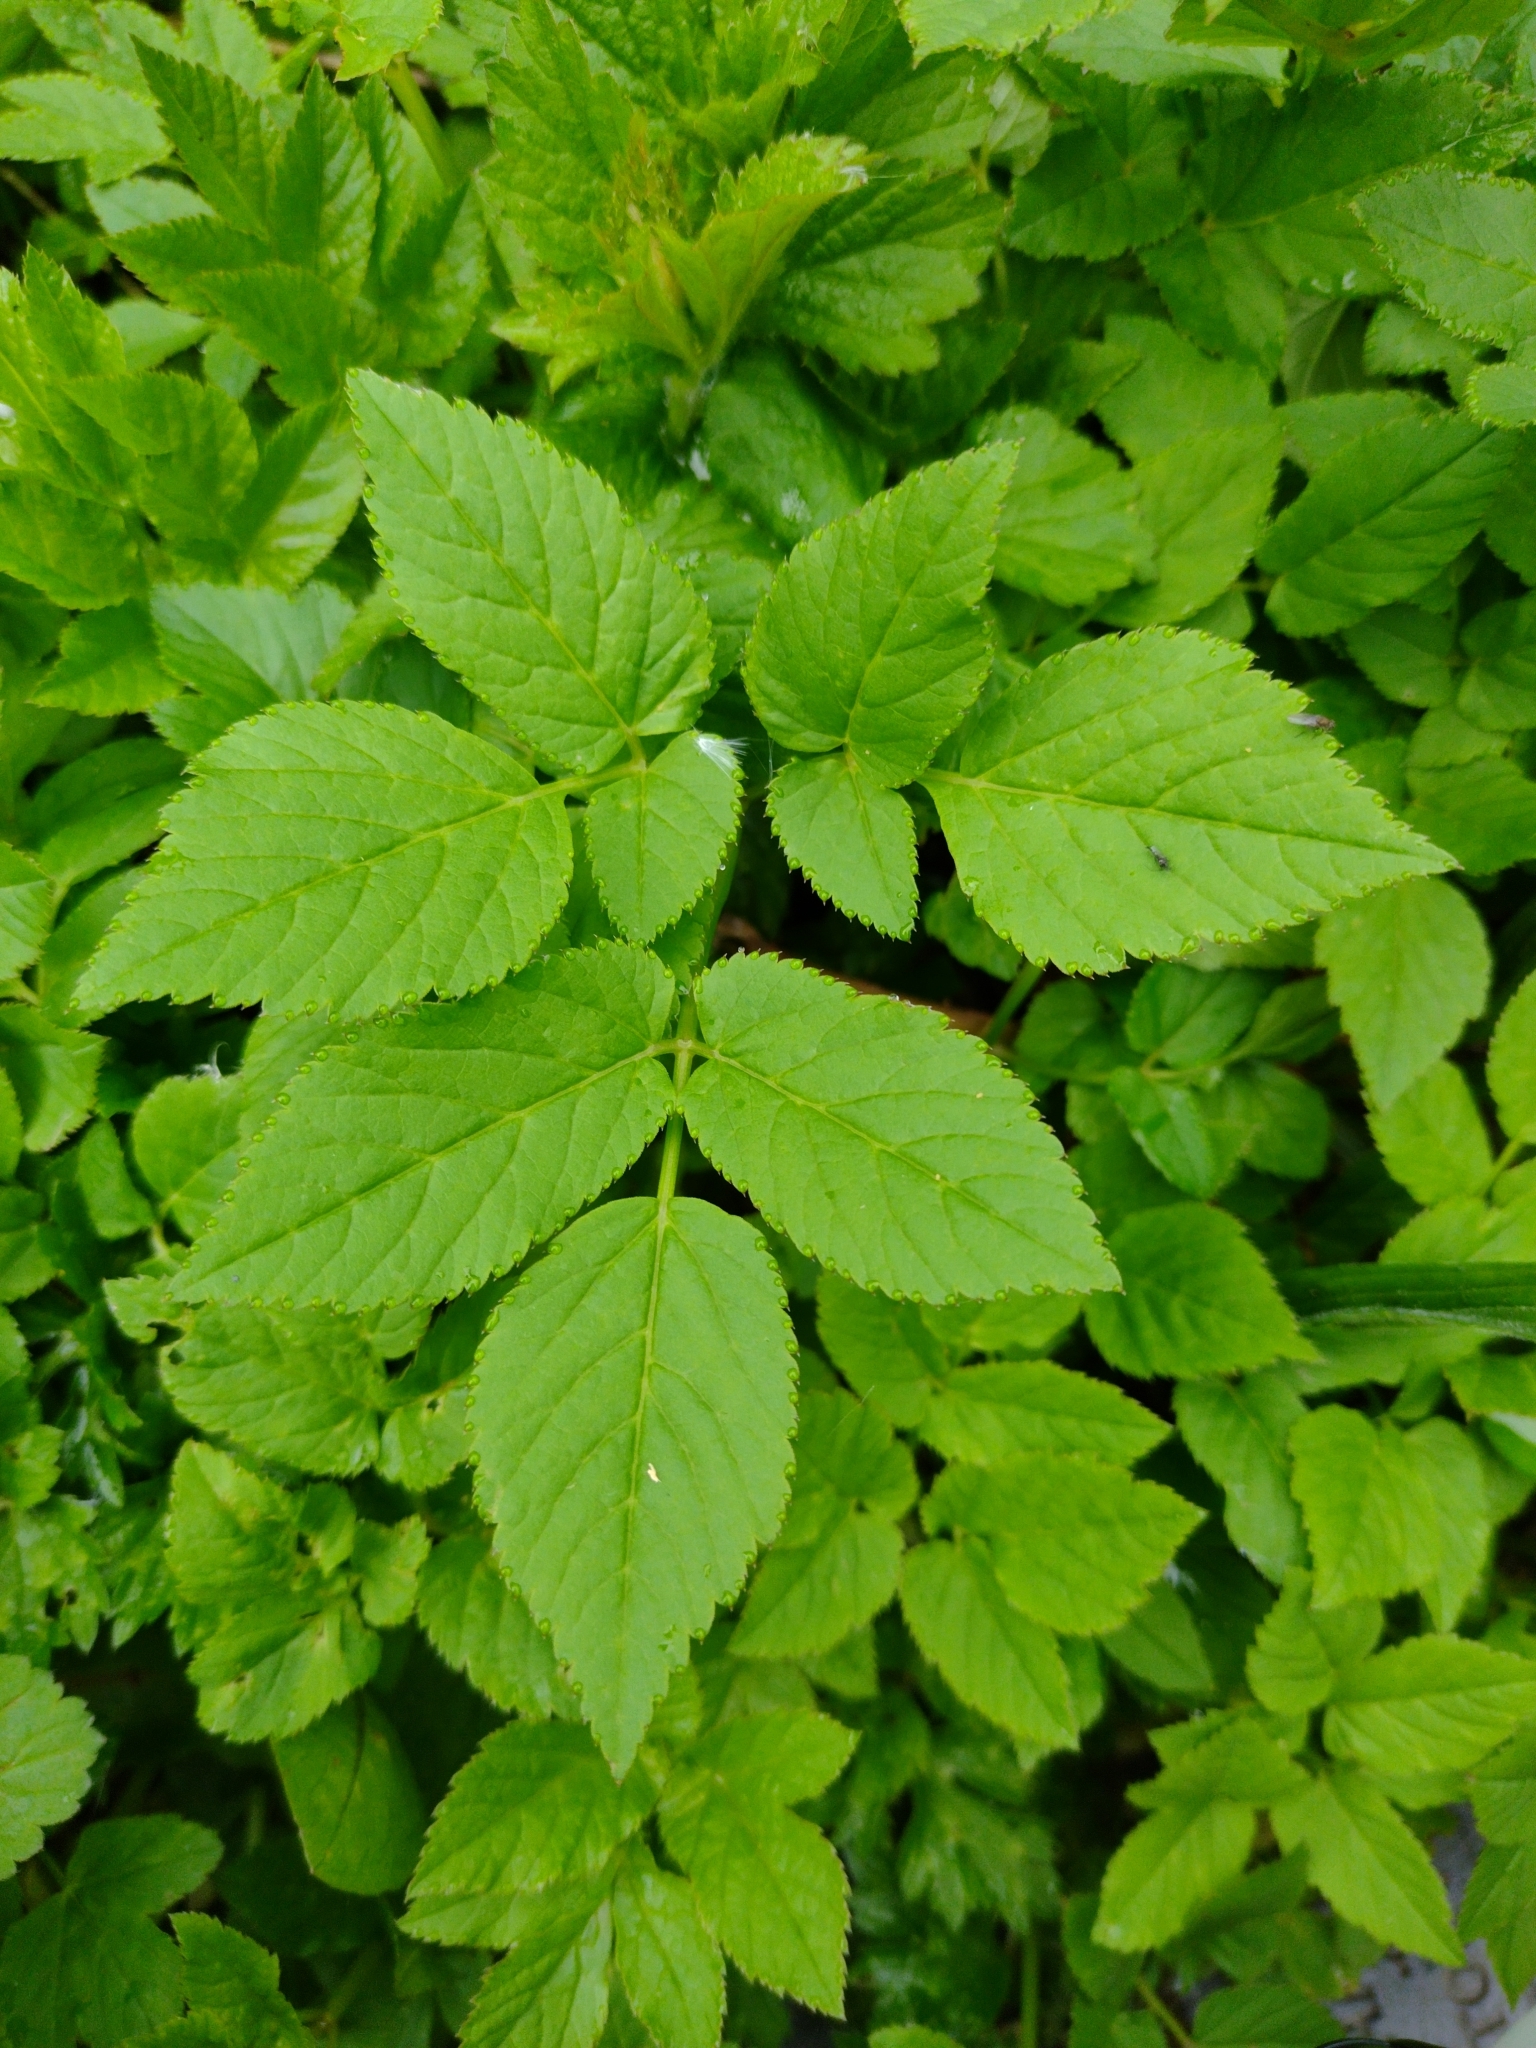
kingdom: Plantae
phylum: Tracheophyta
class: Magnoliopsida
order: Apiales
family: Apiaceae
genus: Aegopodium
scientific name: Aegopodium podagraria
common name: Ground-elder
